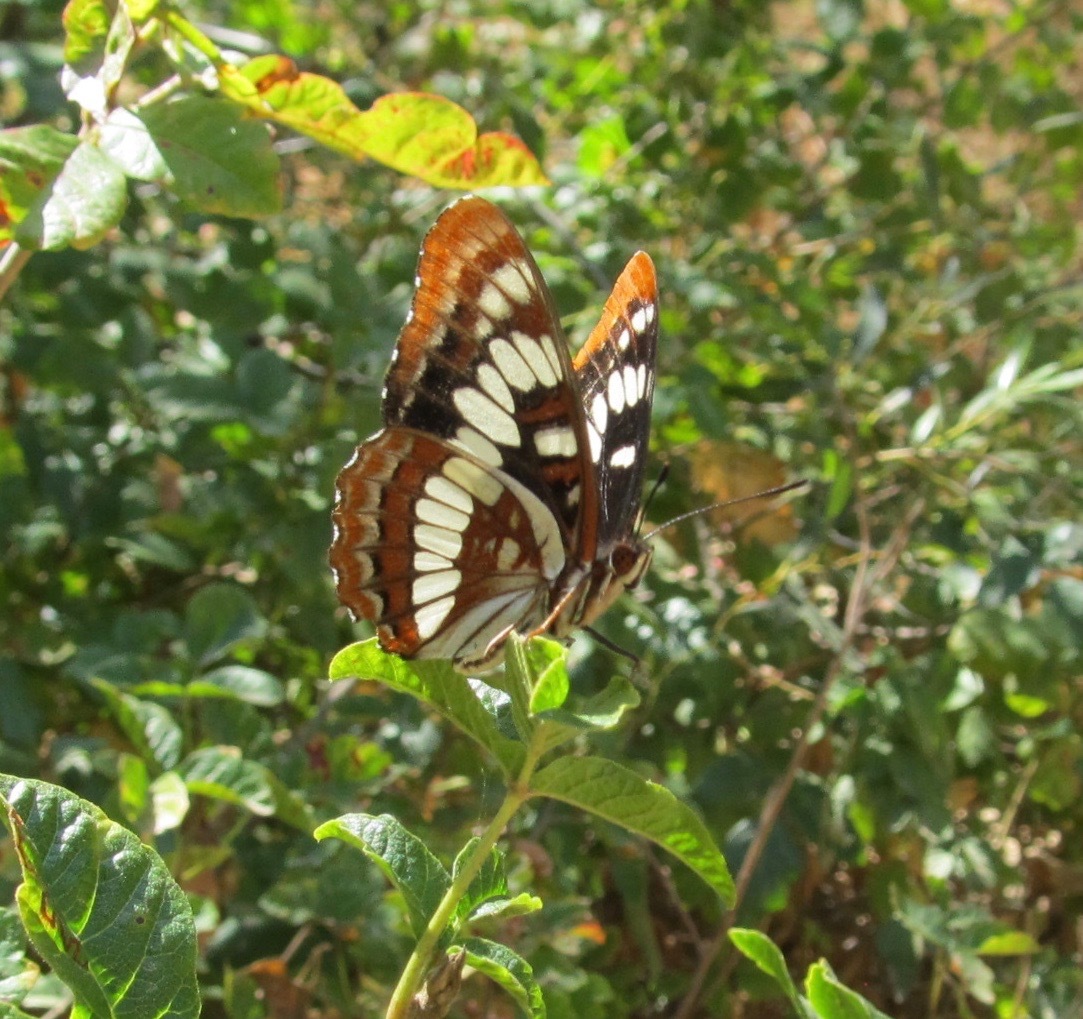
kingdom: Animalia
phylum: Arthropoda
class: Insecta
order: Lepidoptera
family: Nymphalidae
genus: Limenitis
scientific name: Limenitis lorquini
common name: Lorquin's admiral
